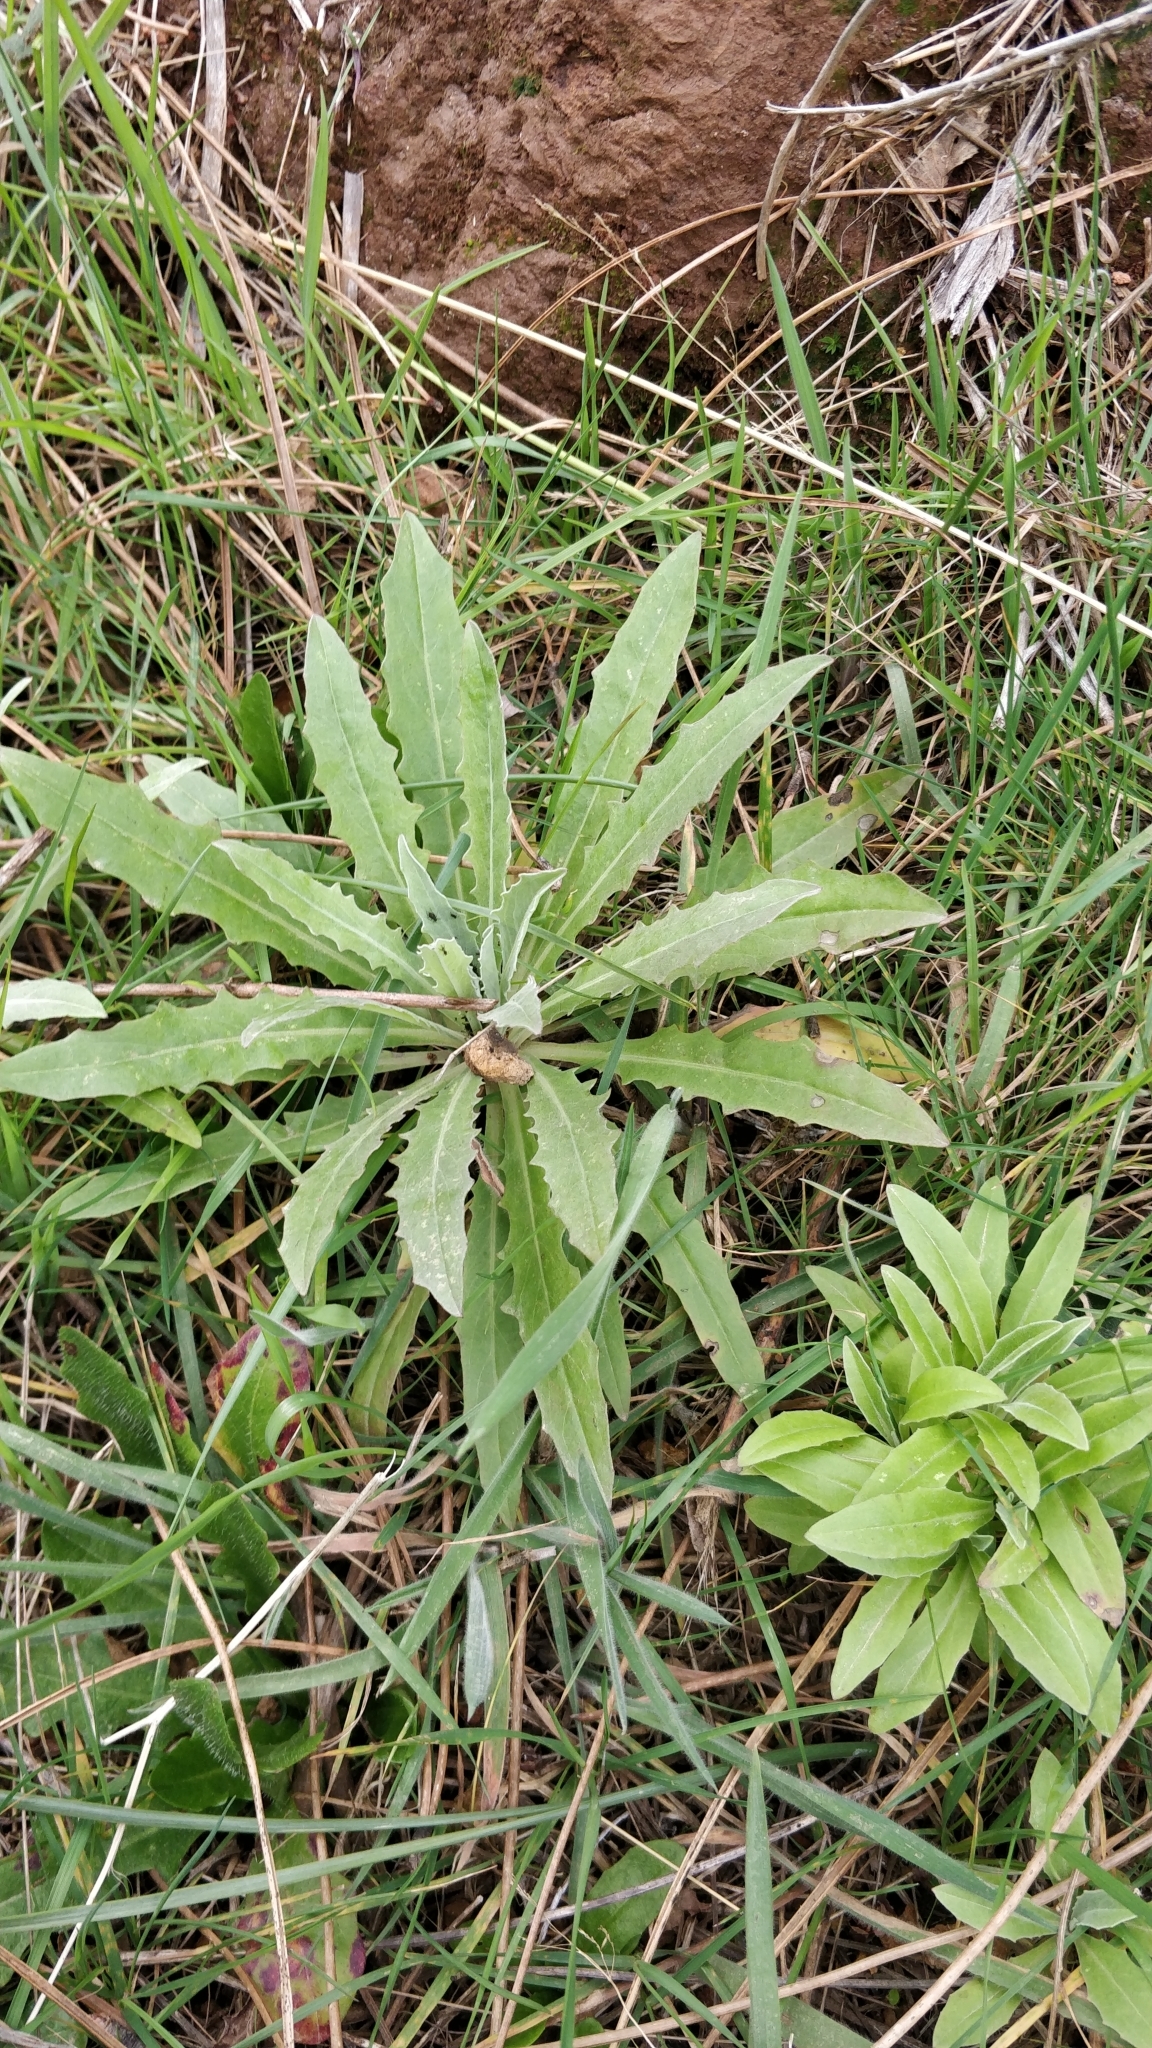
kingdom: Plantae
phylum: Tracheophyta
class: Magnoliopsida
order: Asterales
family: Asteraceae
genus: Andryala
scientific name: Andryala glandulosa
